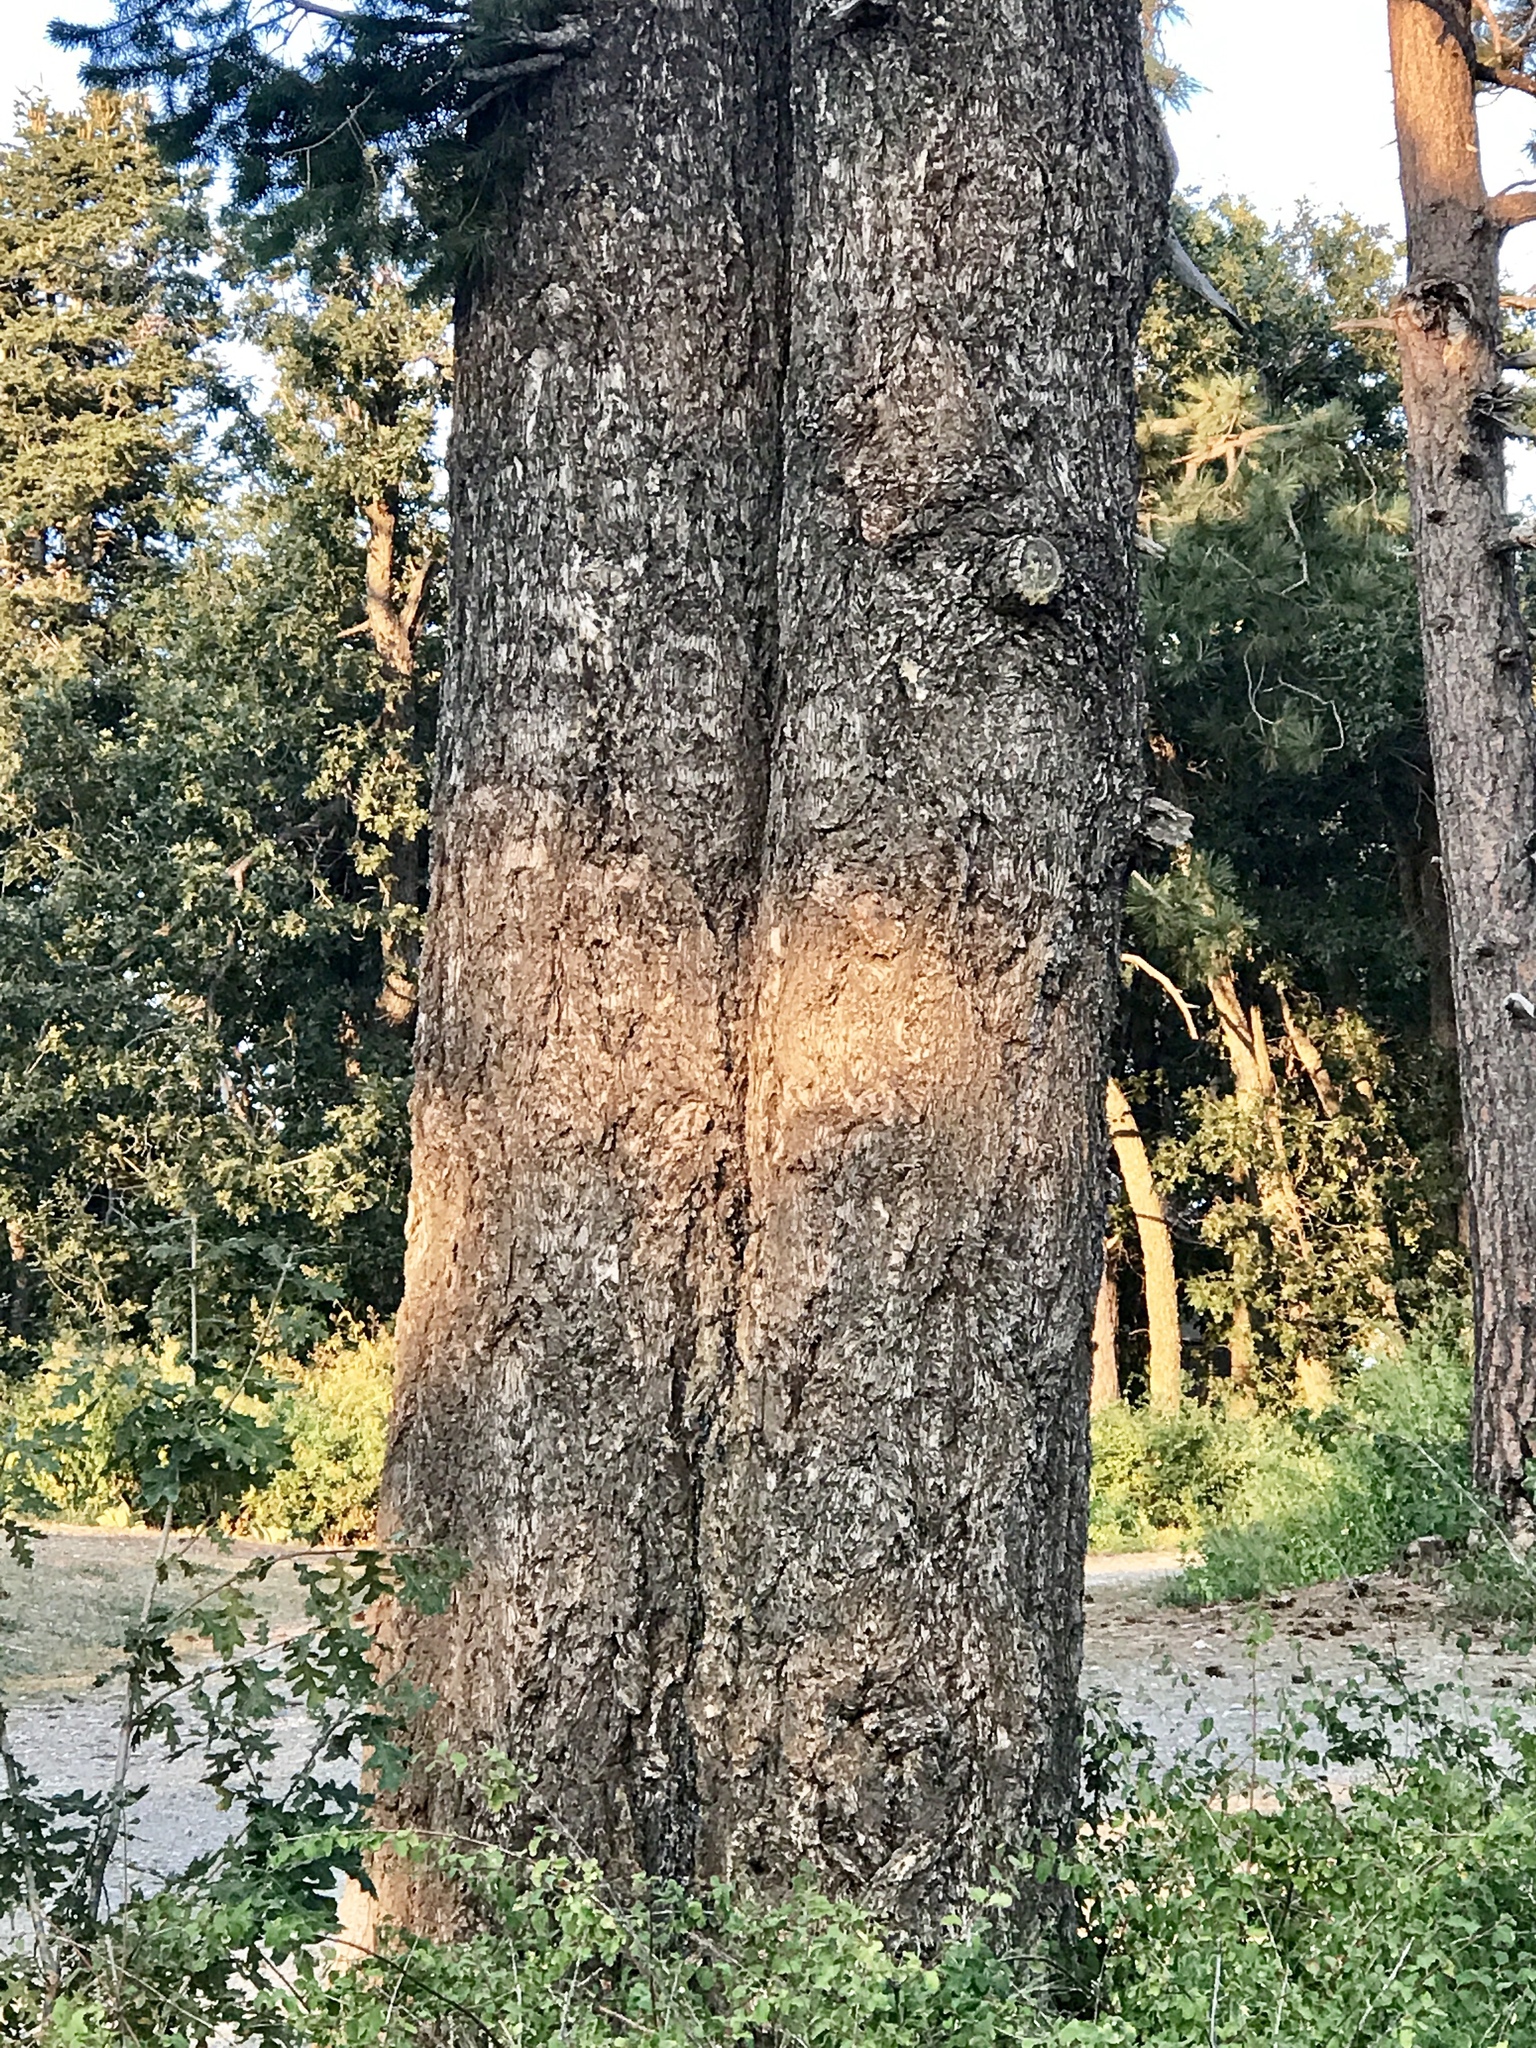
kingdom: Plantae
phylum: Tracheophyta
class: Pinopsida
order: Pinales
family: Pinaceae
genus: Pseudotsuga
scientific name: Pseudotsuga menziesii
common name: Douglas fir
